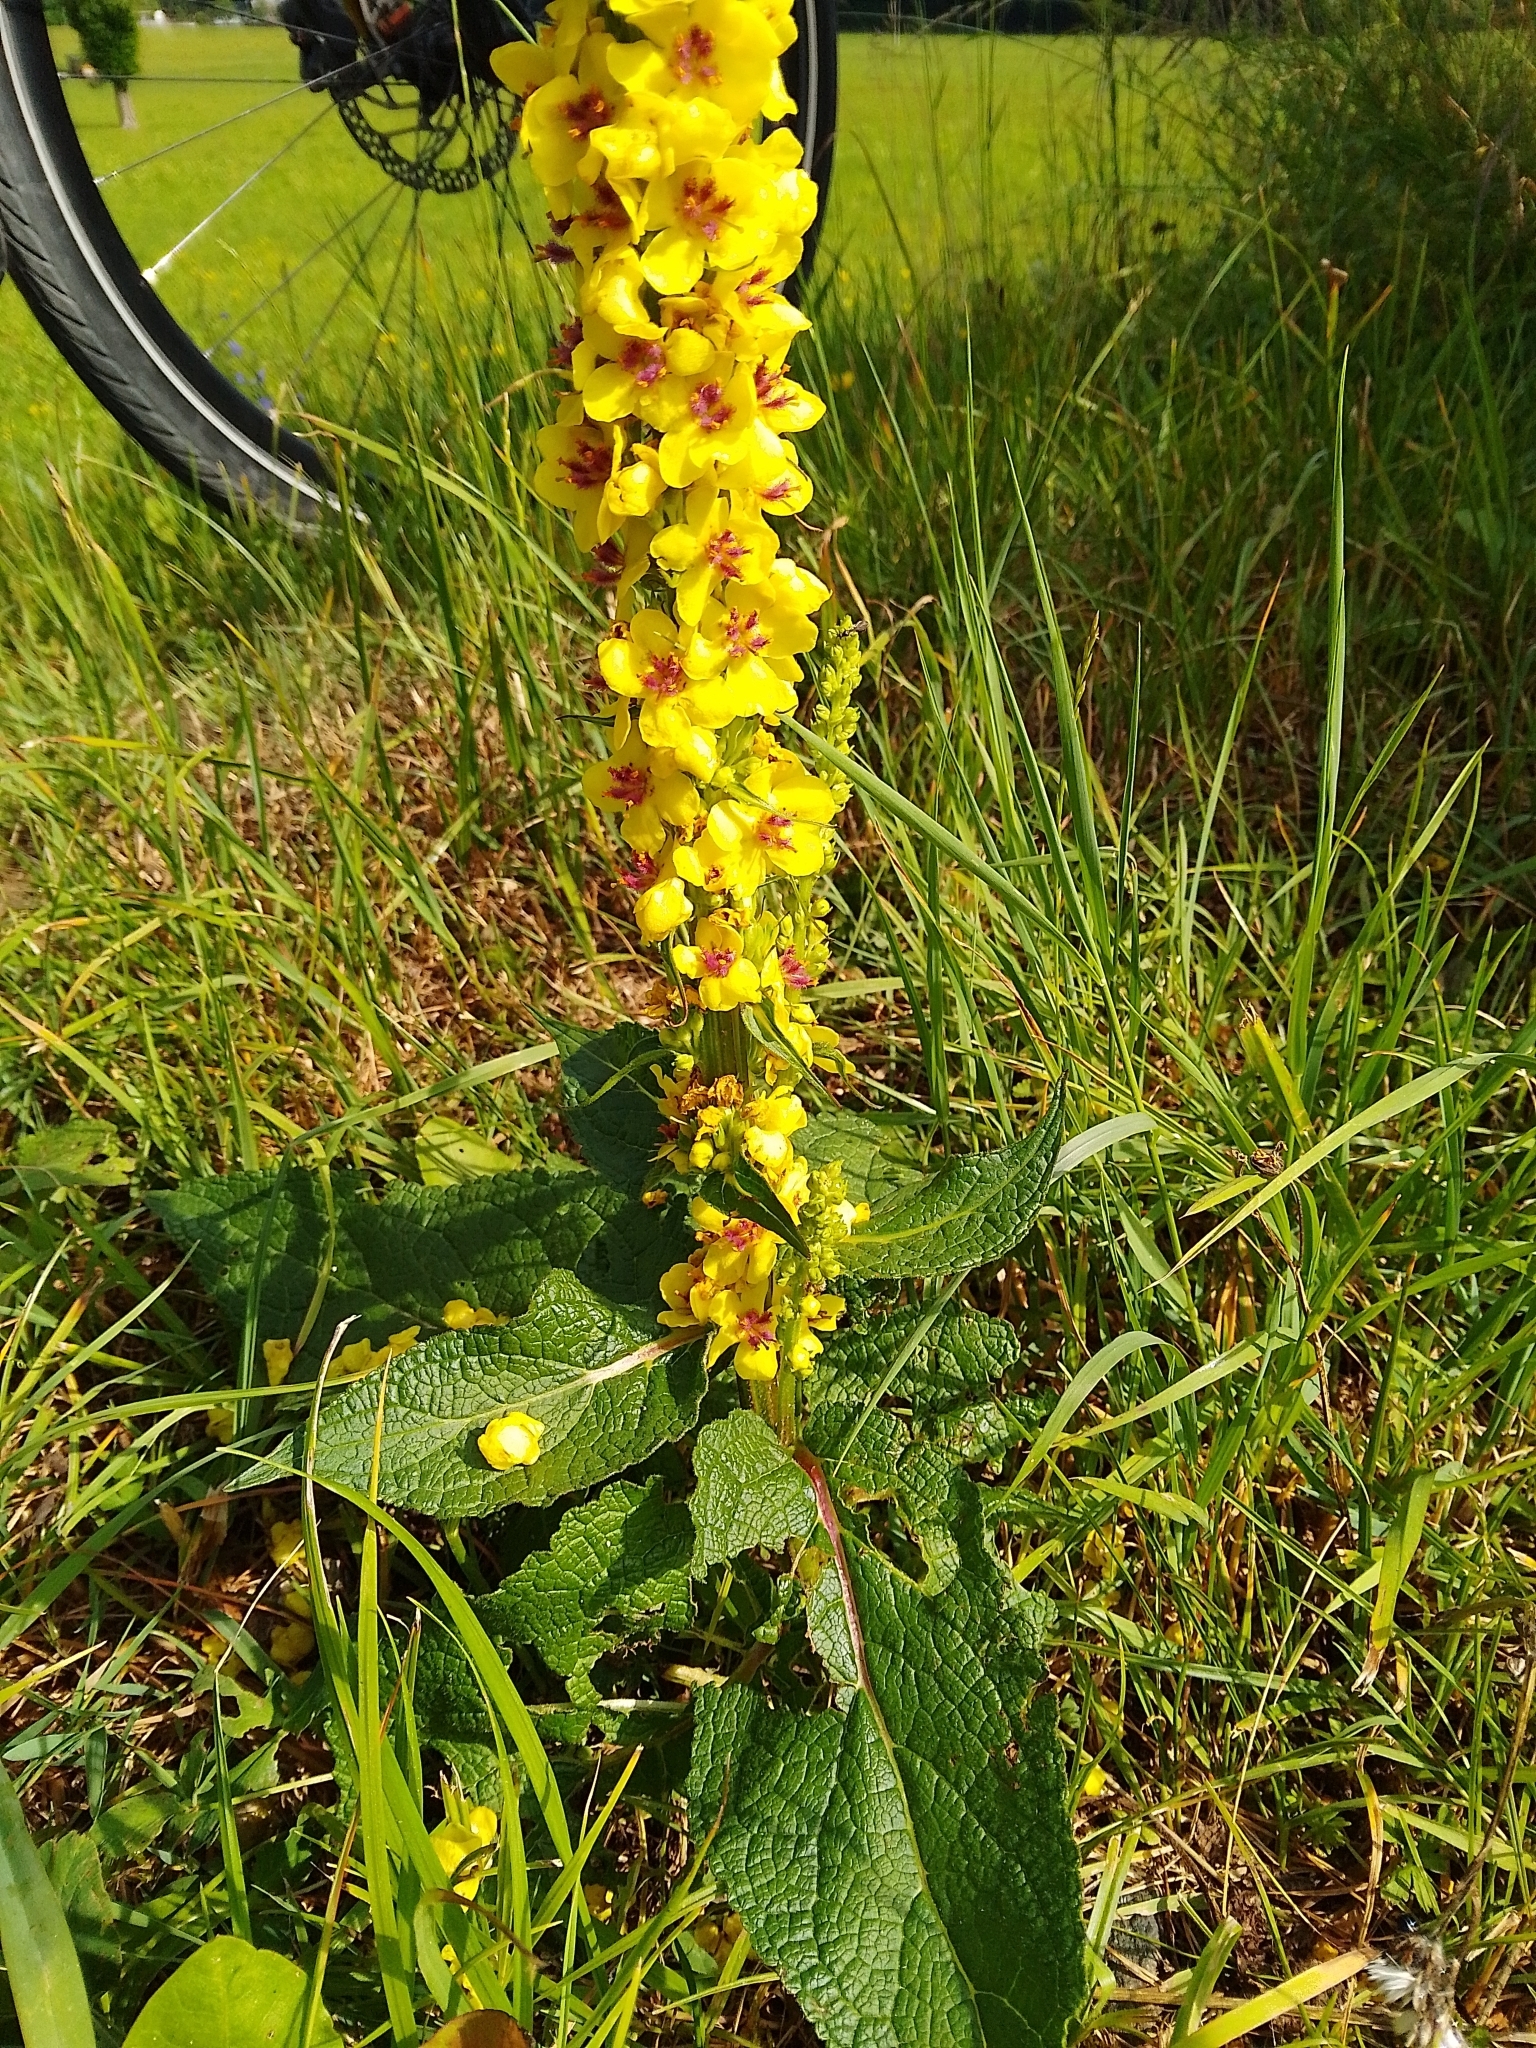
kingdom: Plantae
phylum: Tracheophyta
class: Magnoliopsida
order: Lamiales
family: Scrophulariaceae
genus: Verbascum
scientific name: Verbascum nigrum
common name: Dark mullein
